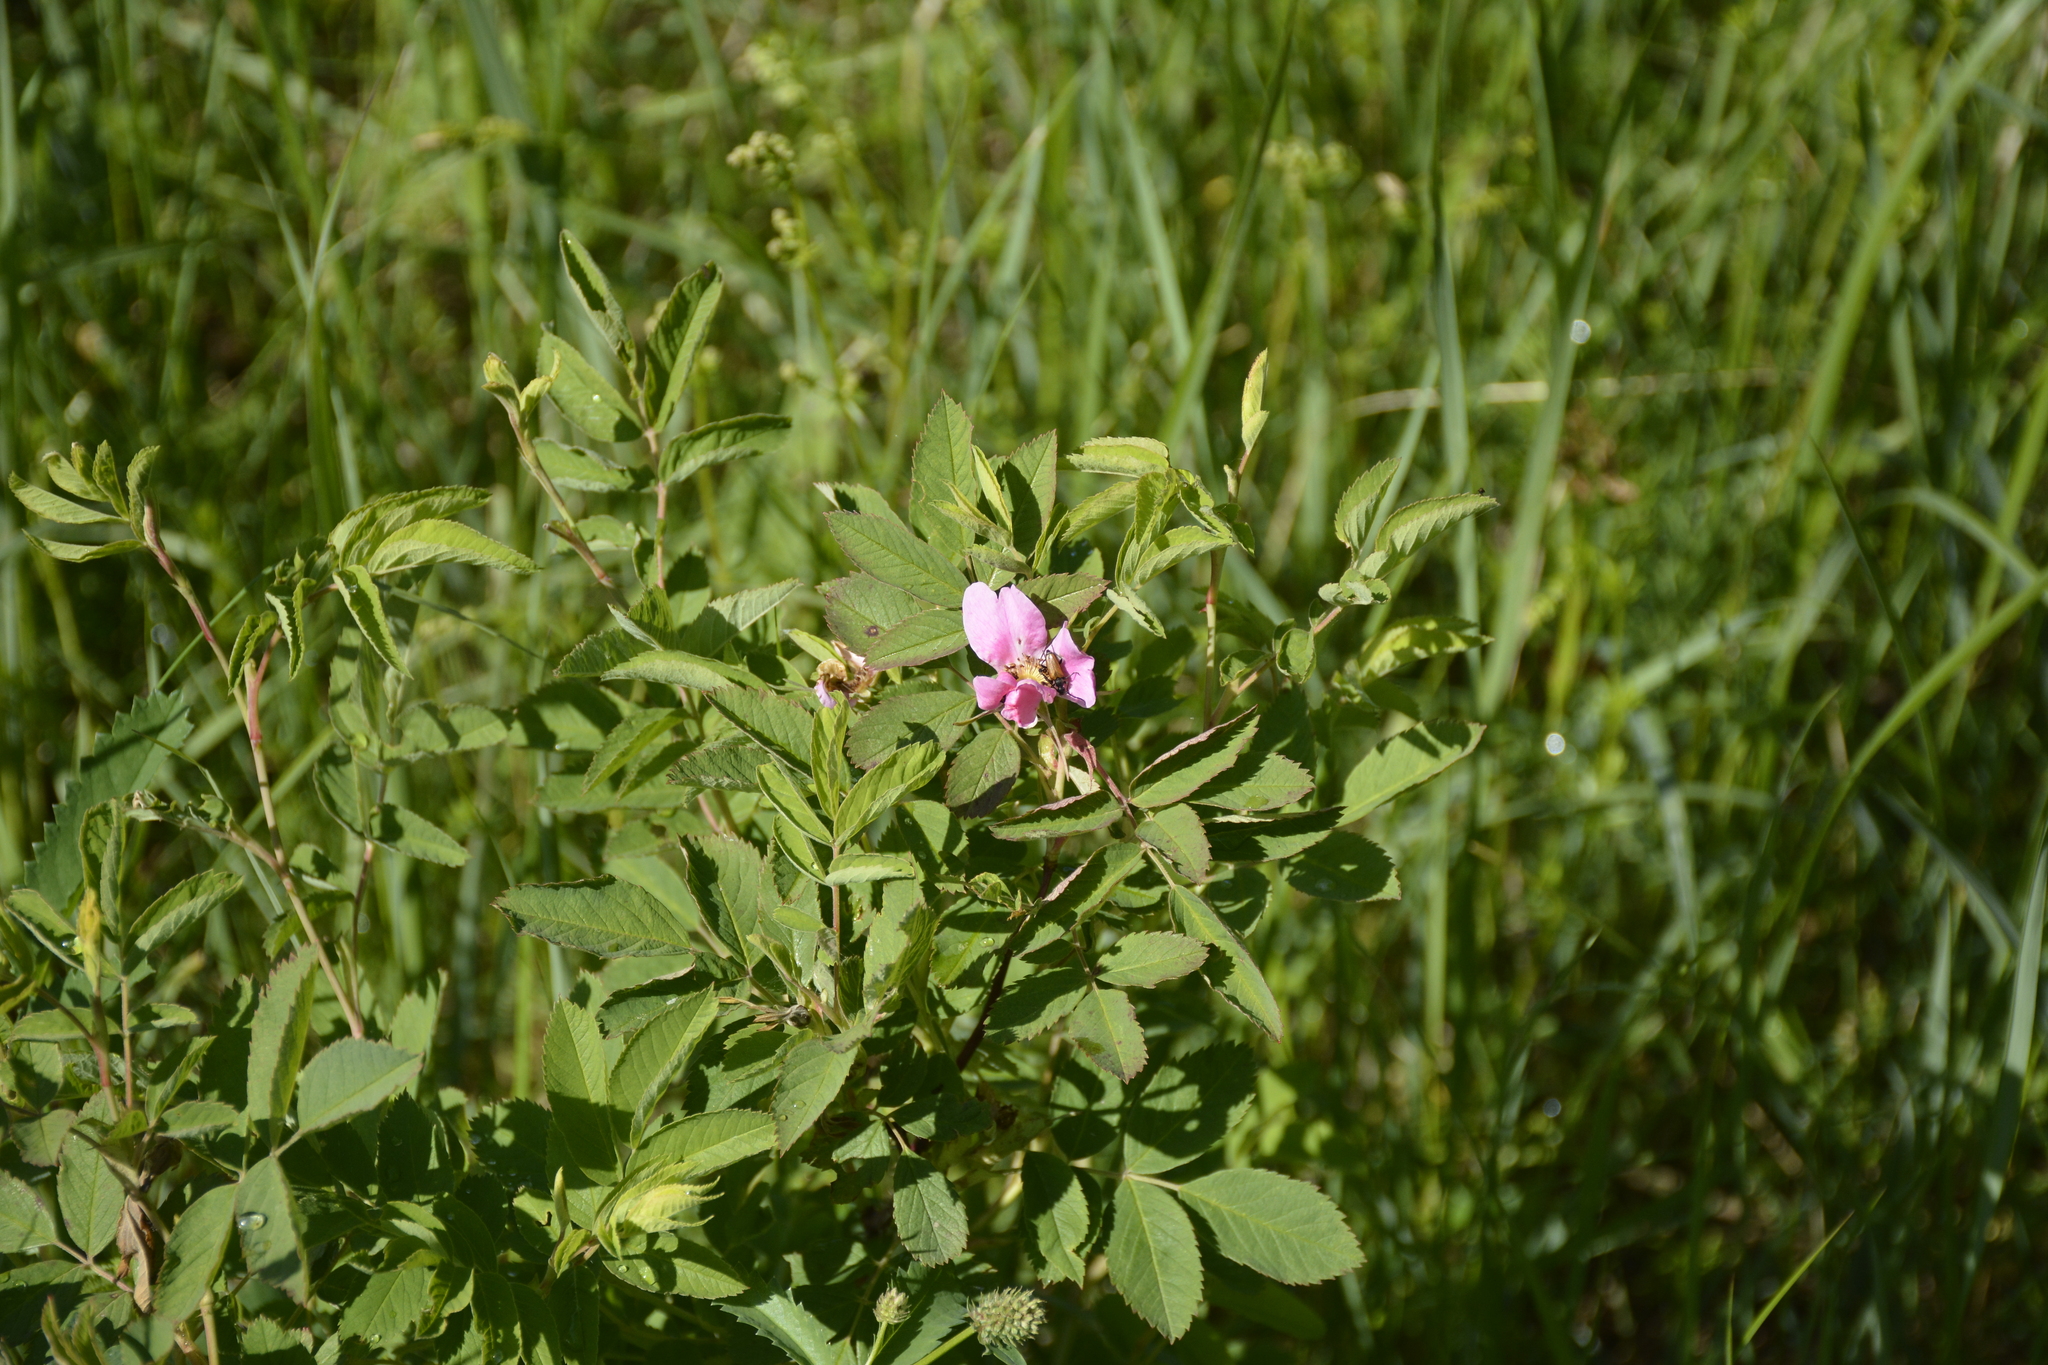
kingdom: Plantae
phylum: Tracheophyta
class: Magnoliopsida
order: Rosales
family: Rosaceae
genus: Rosa
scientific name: Rosa majalis
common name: Cinnamon rose
